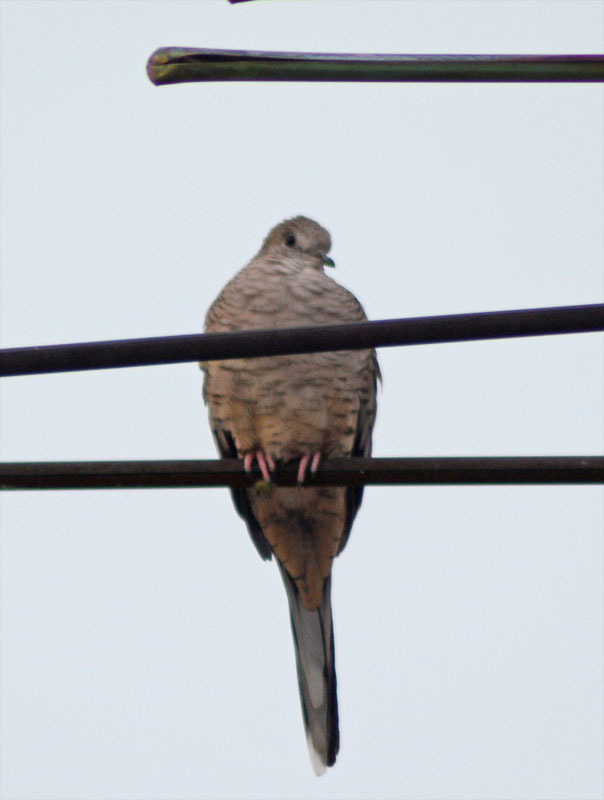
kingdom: Animalia
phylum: Chordata
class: Aves
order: Columbiformes
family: Columbidae
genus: Columbina
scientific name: Columbina inca
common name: Inca dove
